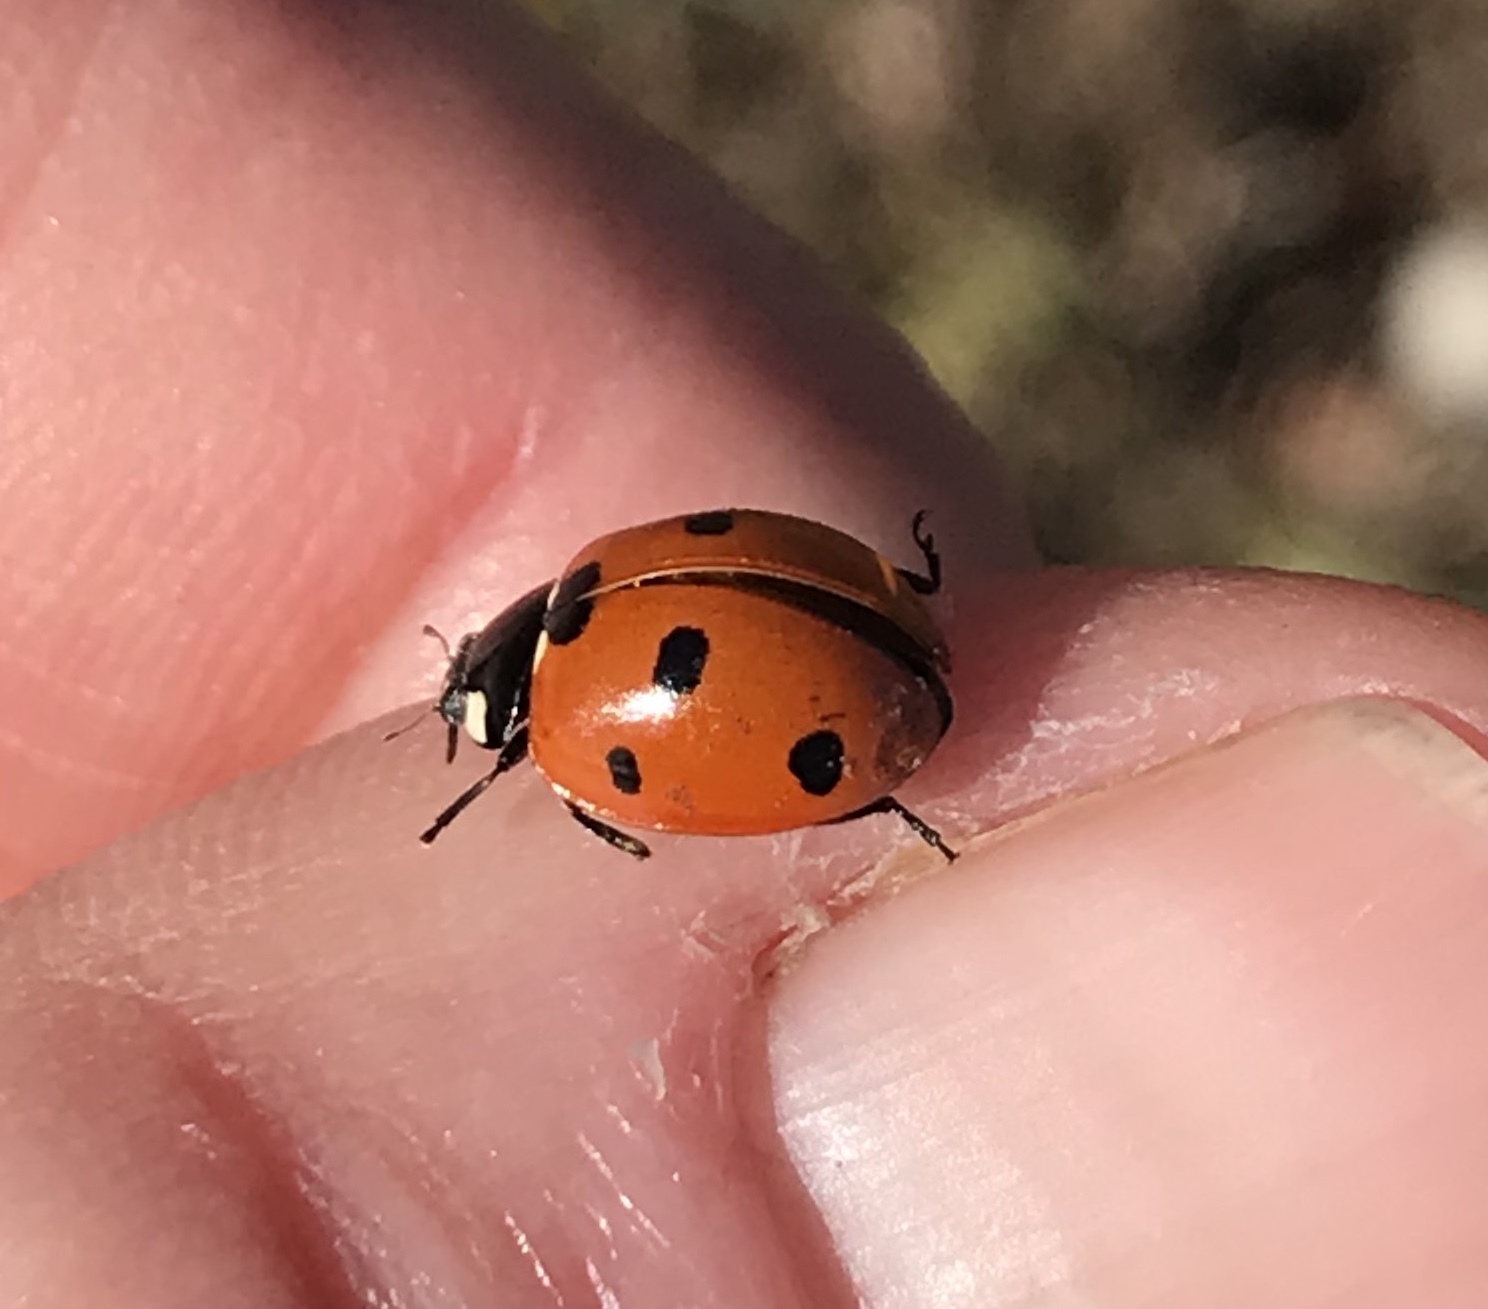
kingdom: Animalia
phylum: Arthropoda
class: Insecta
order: Coleoptera
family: Coccinellidae
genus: Coccinella
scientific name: Coccinella septempunctata
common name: Sevenspotted lady beetle
